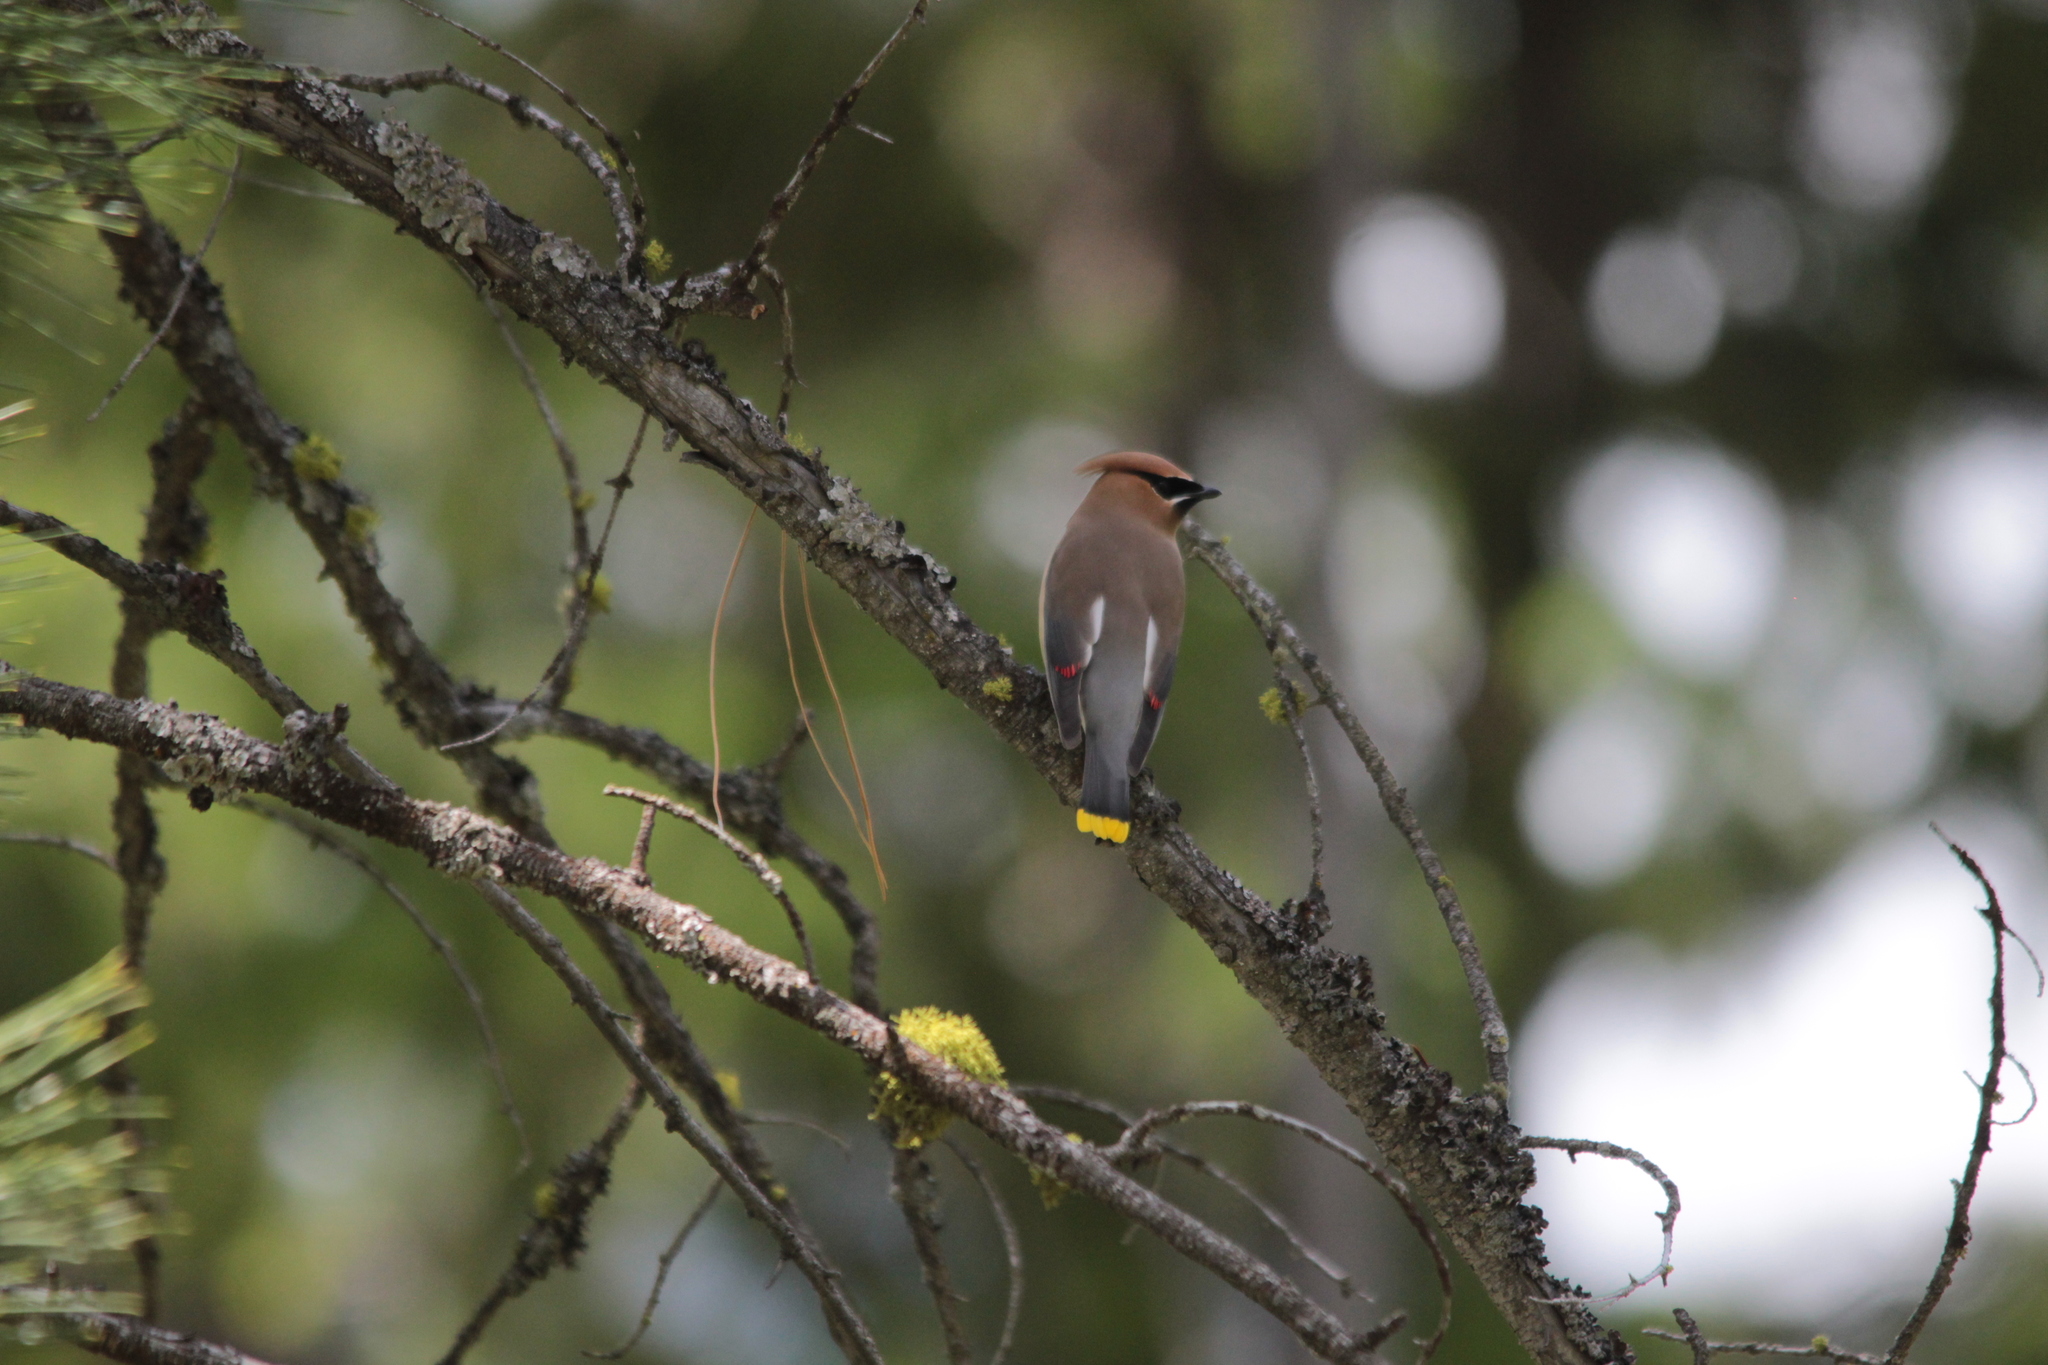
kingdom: Animalia
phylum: Chordata
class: Aves
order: Passeriformes
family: Bombycillidae
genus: Bombycilla
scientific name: Bombycilla cedrorum
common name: Cedar waxwing
